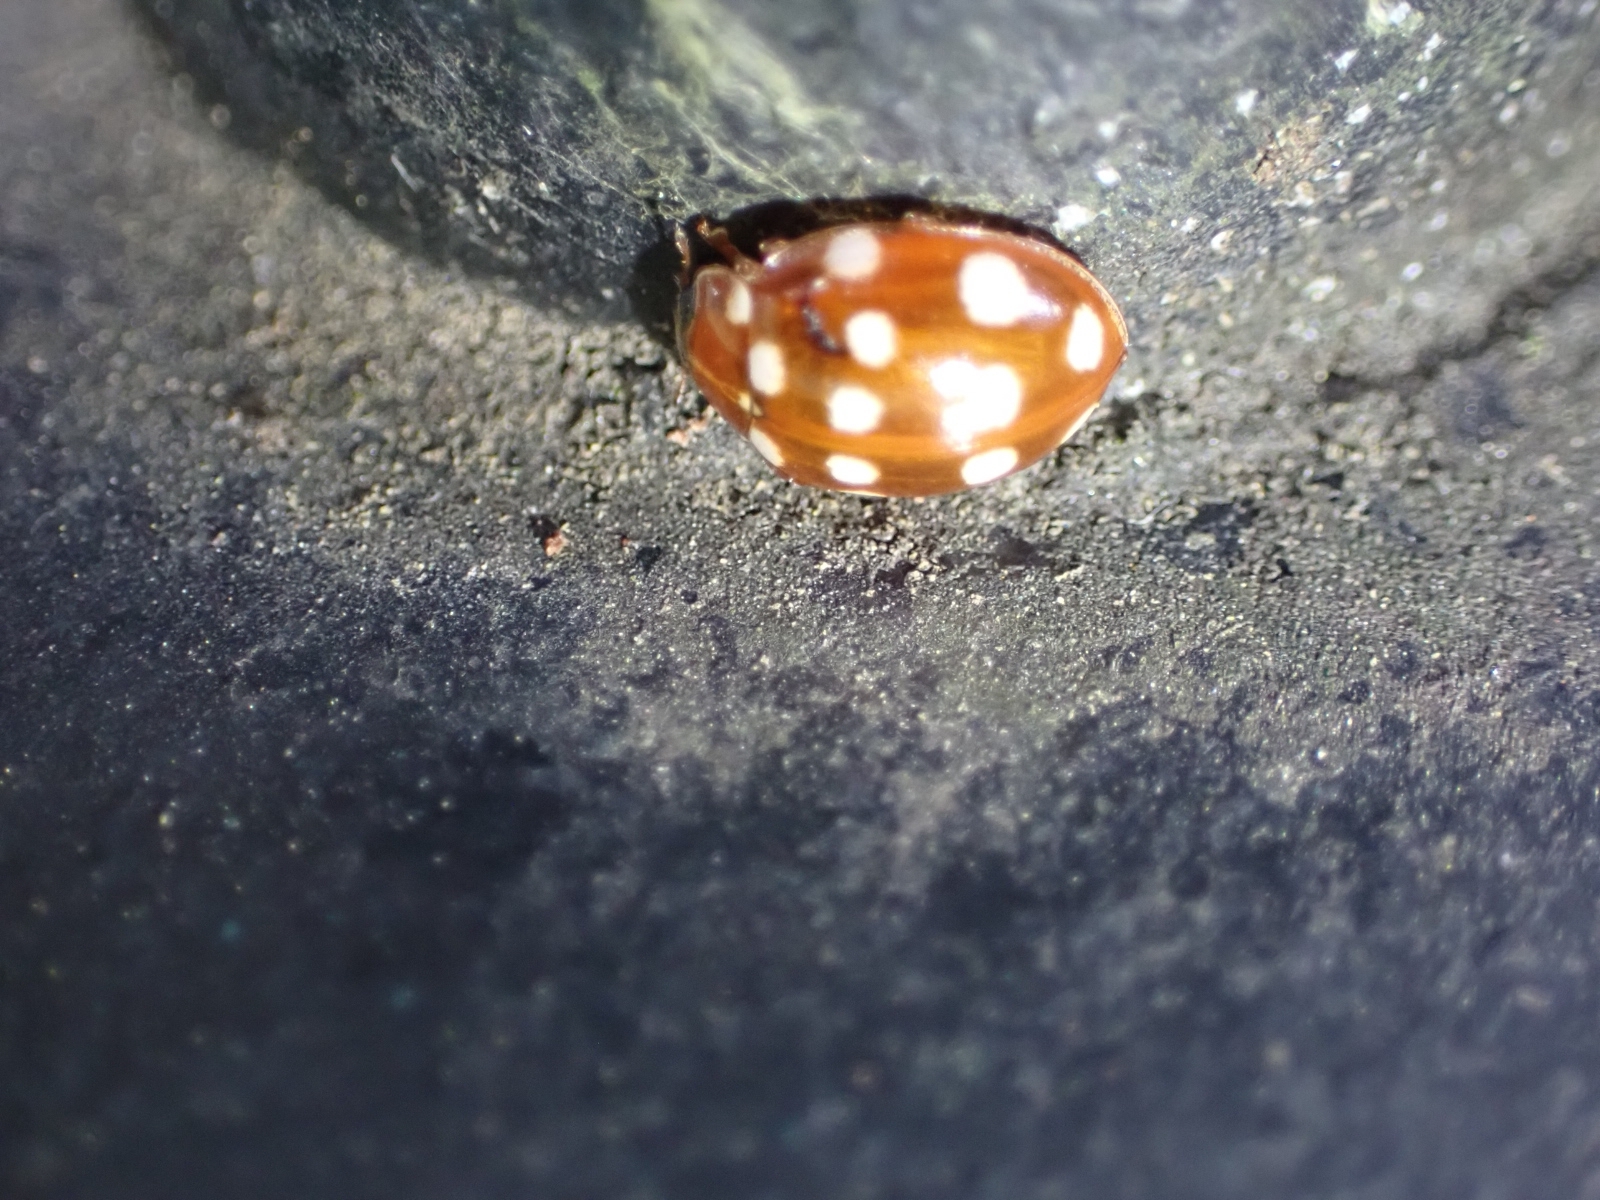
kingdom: Animalia
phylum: Arthropoda
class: Insecta
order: Coleoptera
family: Coccinellidae
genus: Calvia
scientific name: Calvia quatuordecimguttata
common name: Cream-spot ladybird
